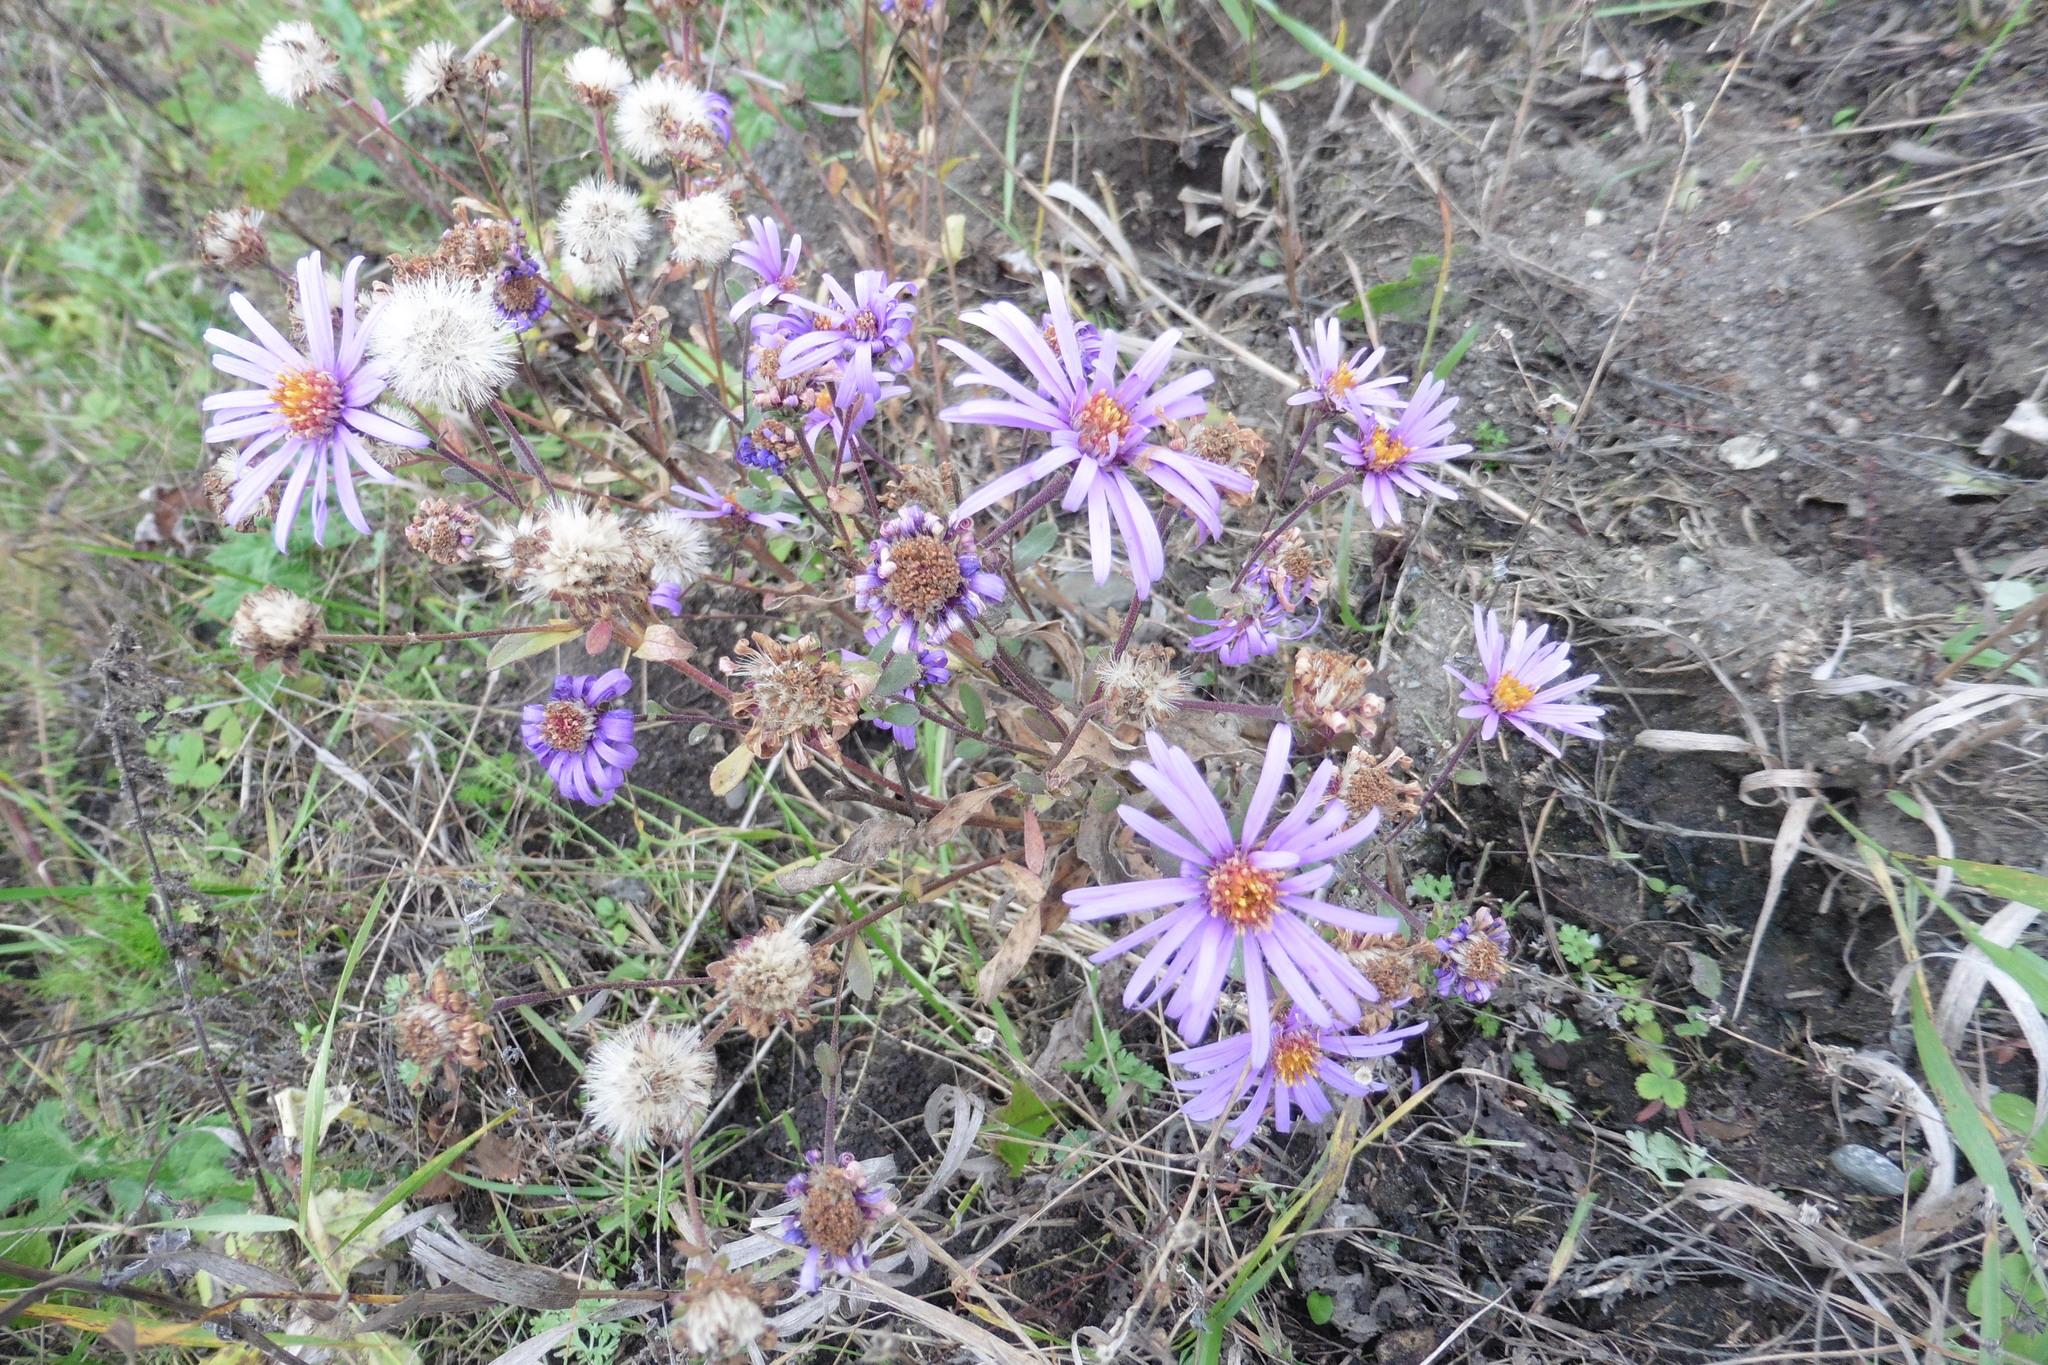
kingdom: Plantae
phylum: Tracheophyta
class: Magnoliopsida
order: Asterales
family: Asteraceae
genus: Aster
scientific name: Aster amellus
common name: European michaelmas daisy
